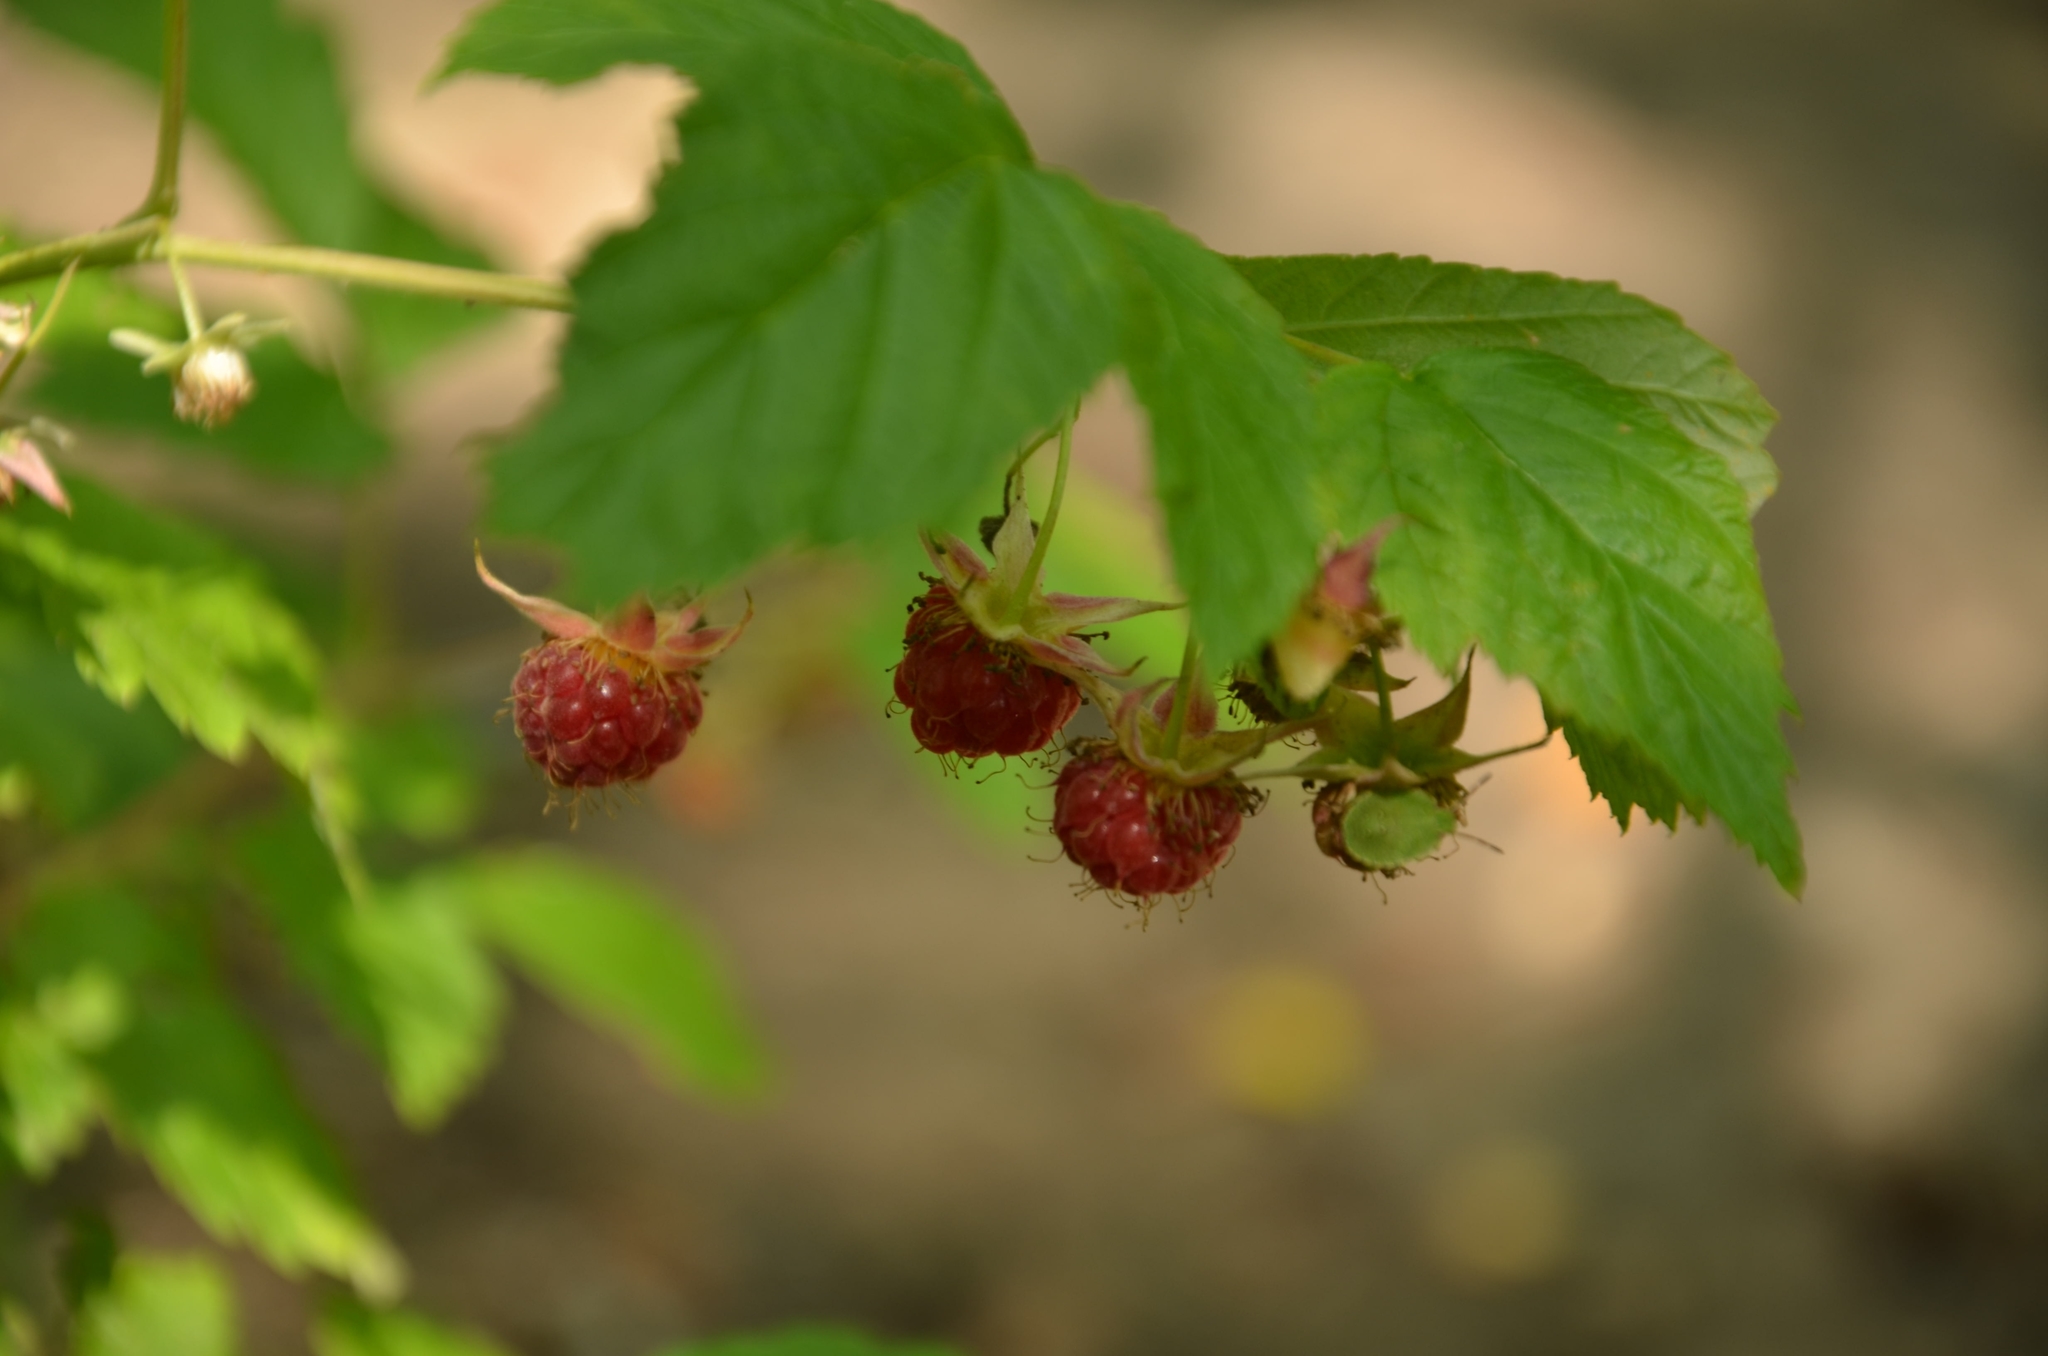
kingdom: Plantae
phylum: Tracheophyta
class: Magnoliopsida
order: Rosales
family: Rosaceae
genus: Rubus
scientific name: Rubus idaeus
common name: Raspberry
